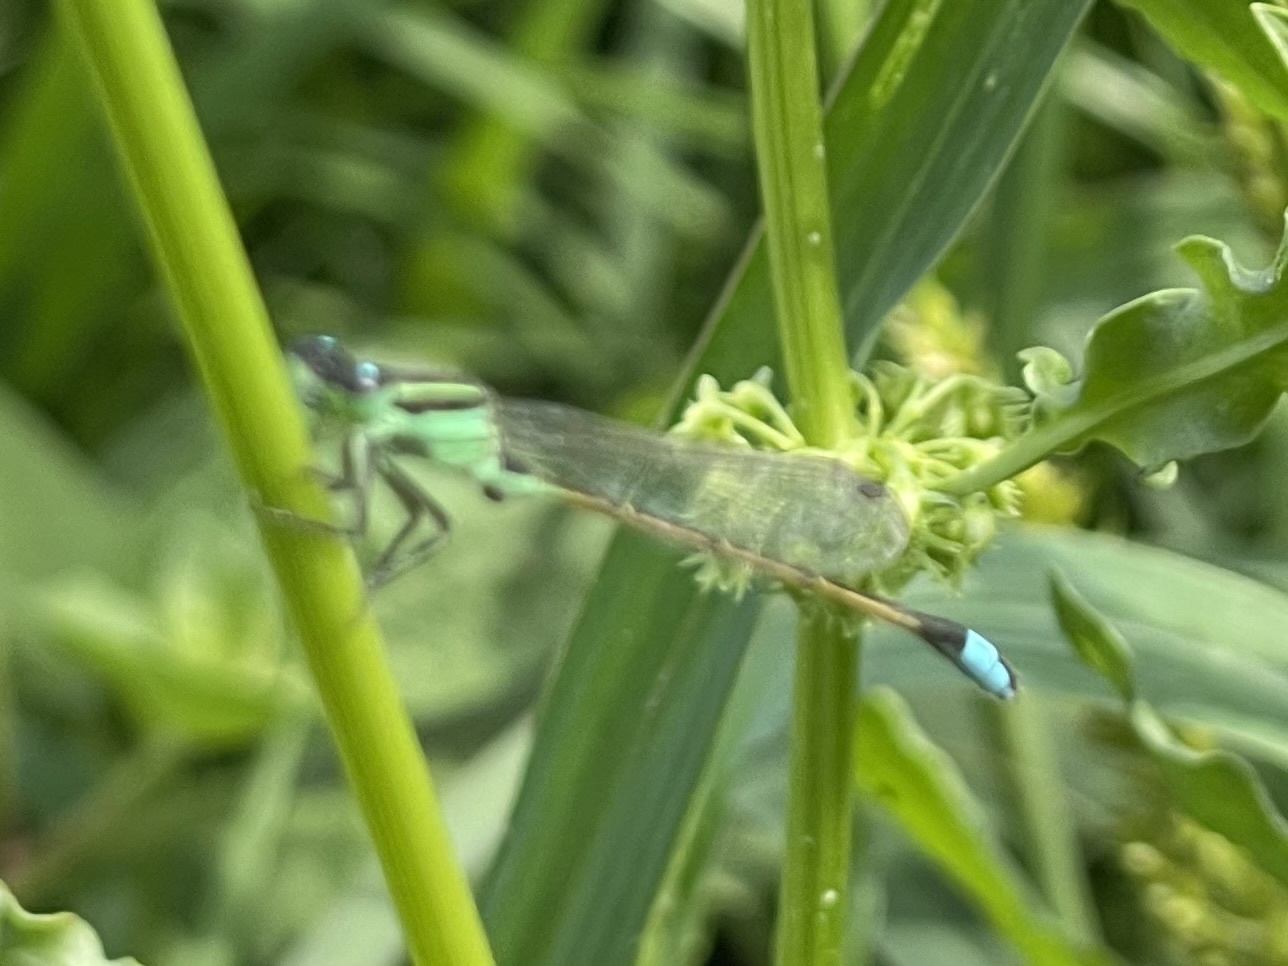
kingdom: Animalia
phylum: Arthropoda
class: Insecta
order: Odonata
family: Coenagrionidae
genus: Ischnura
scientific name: Ischnura ramburii
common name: Rambur's forktail
